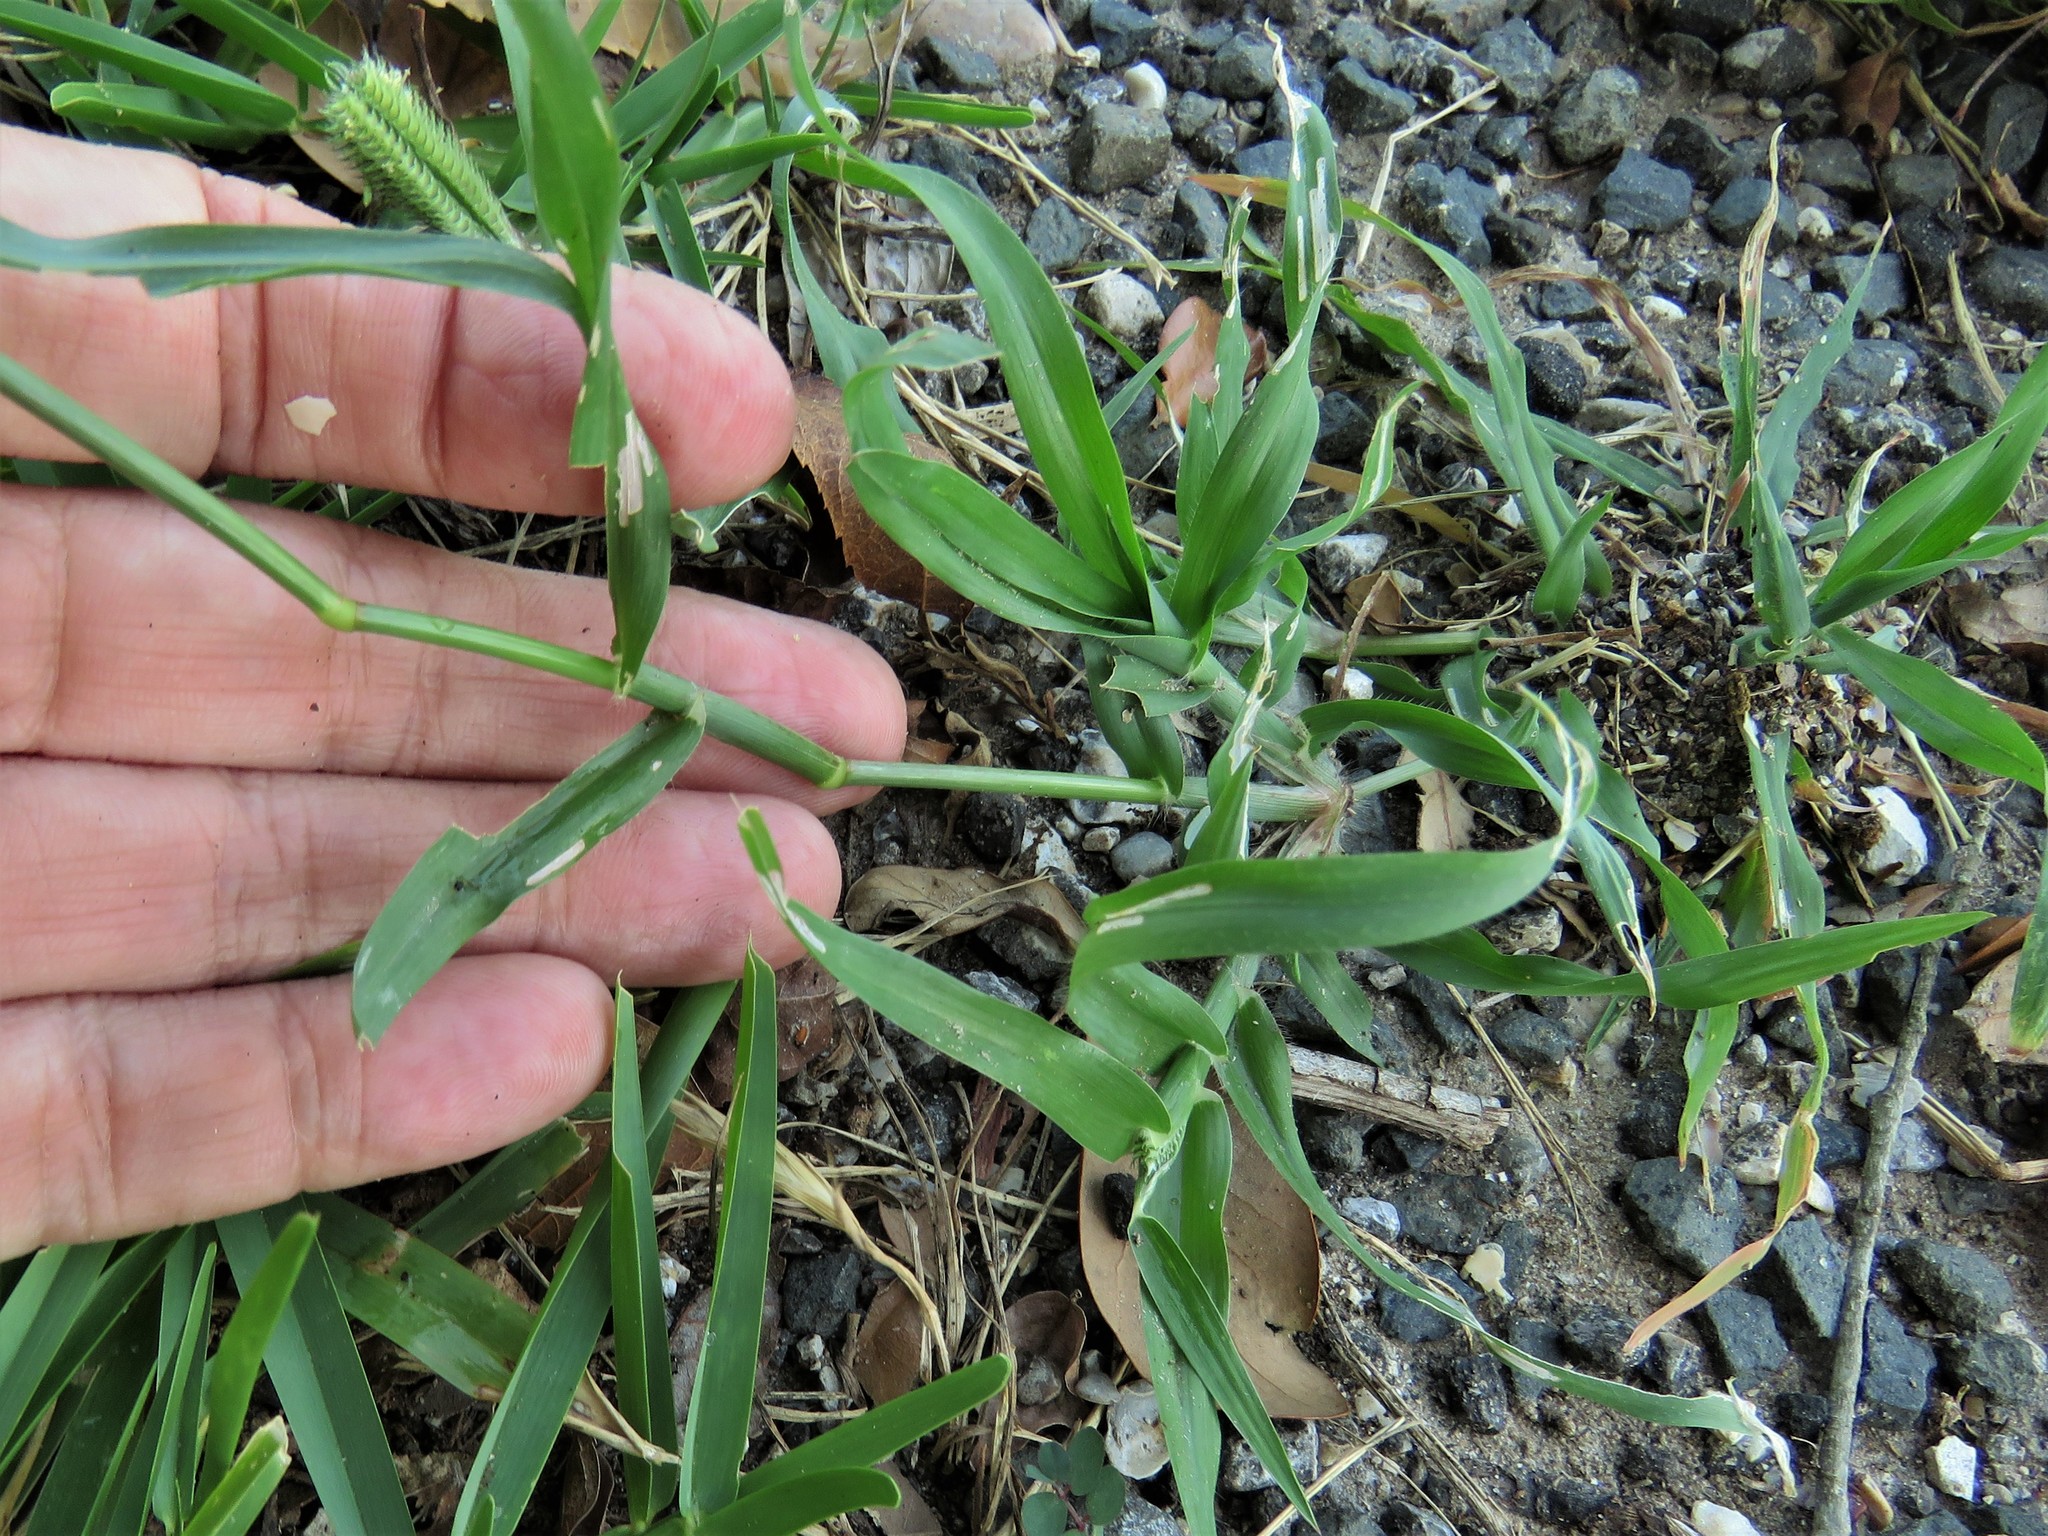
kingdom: Plantae
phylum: Tracheophyta
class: Liliopsida
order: Poales
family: Poaceae
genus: Dactyloctenium
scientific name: Dactyloctenium aegyptium
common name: Egyptian grass
